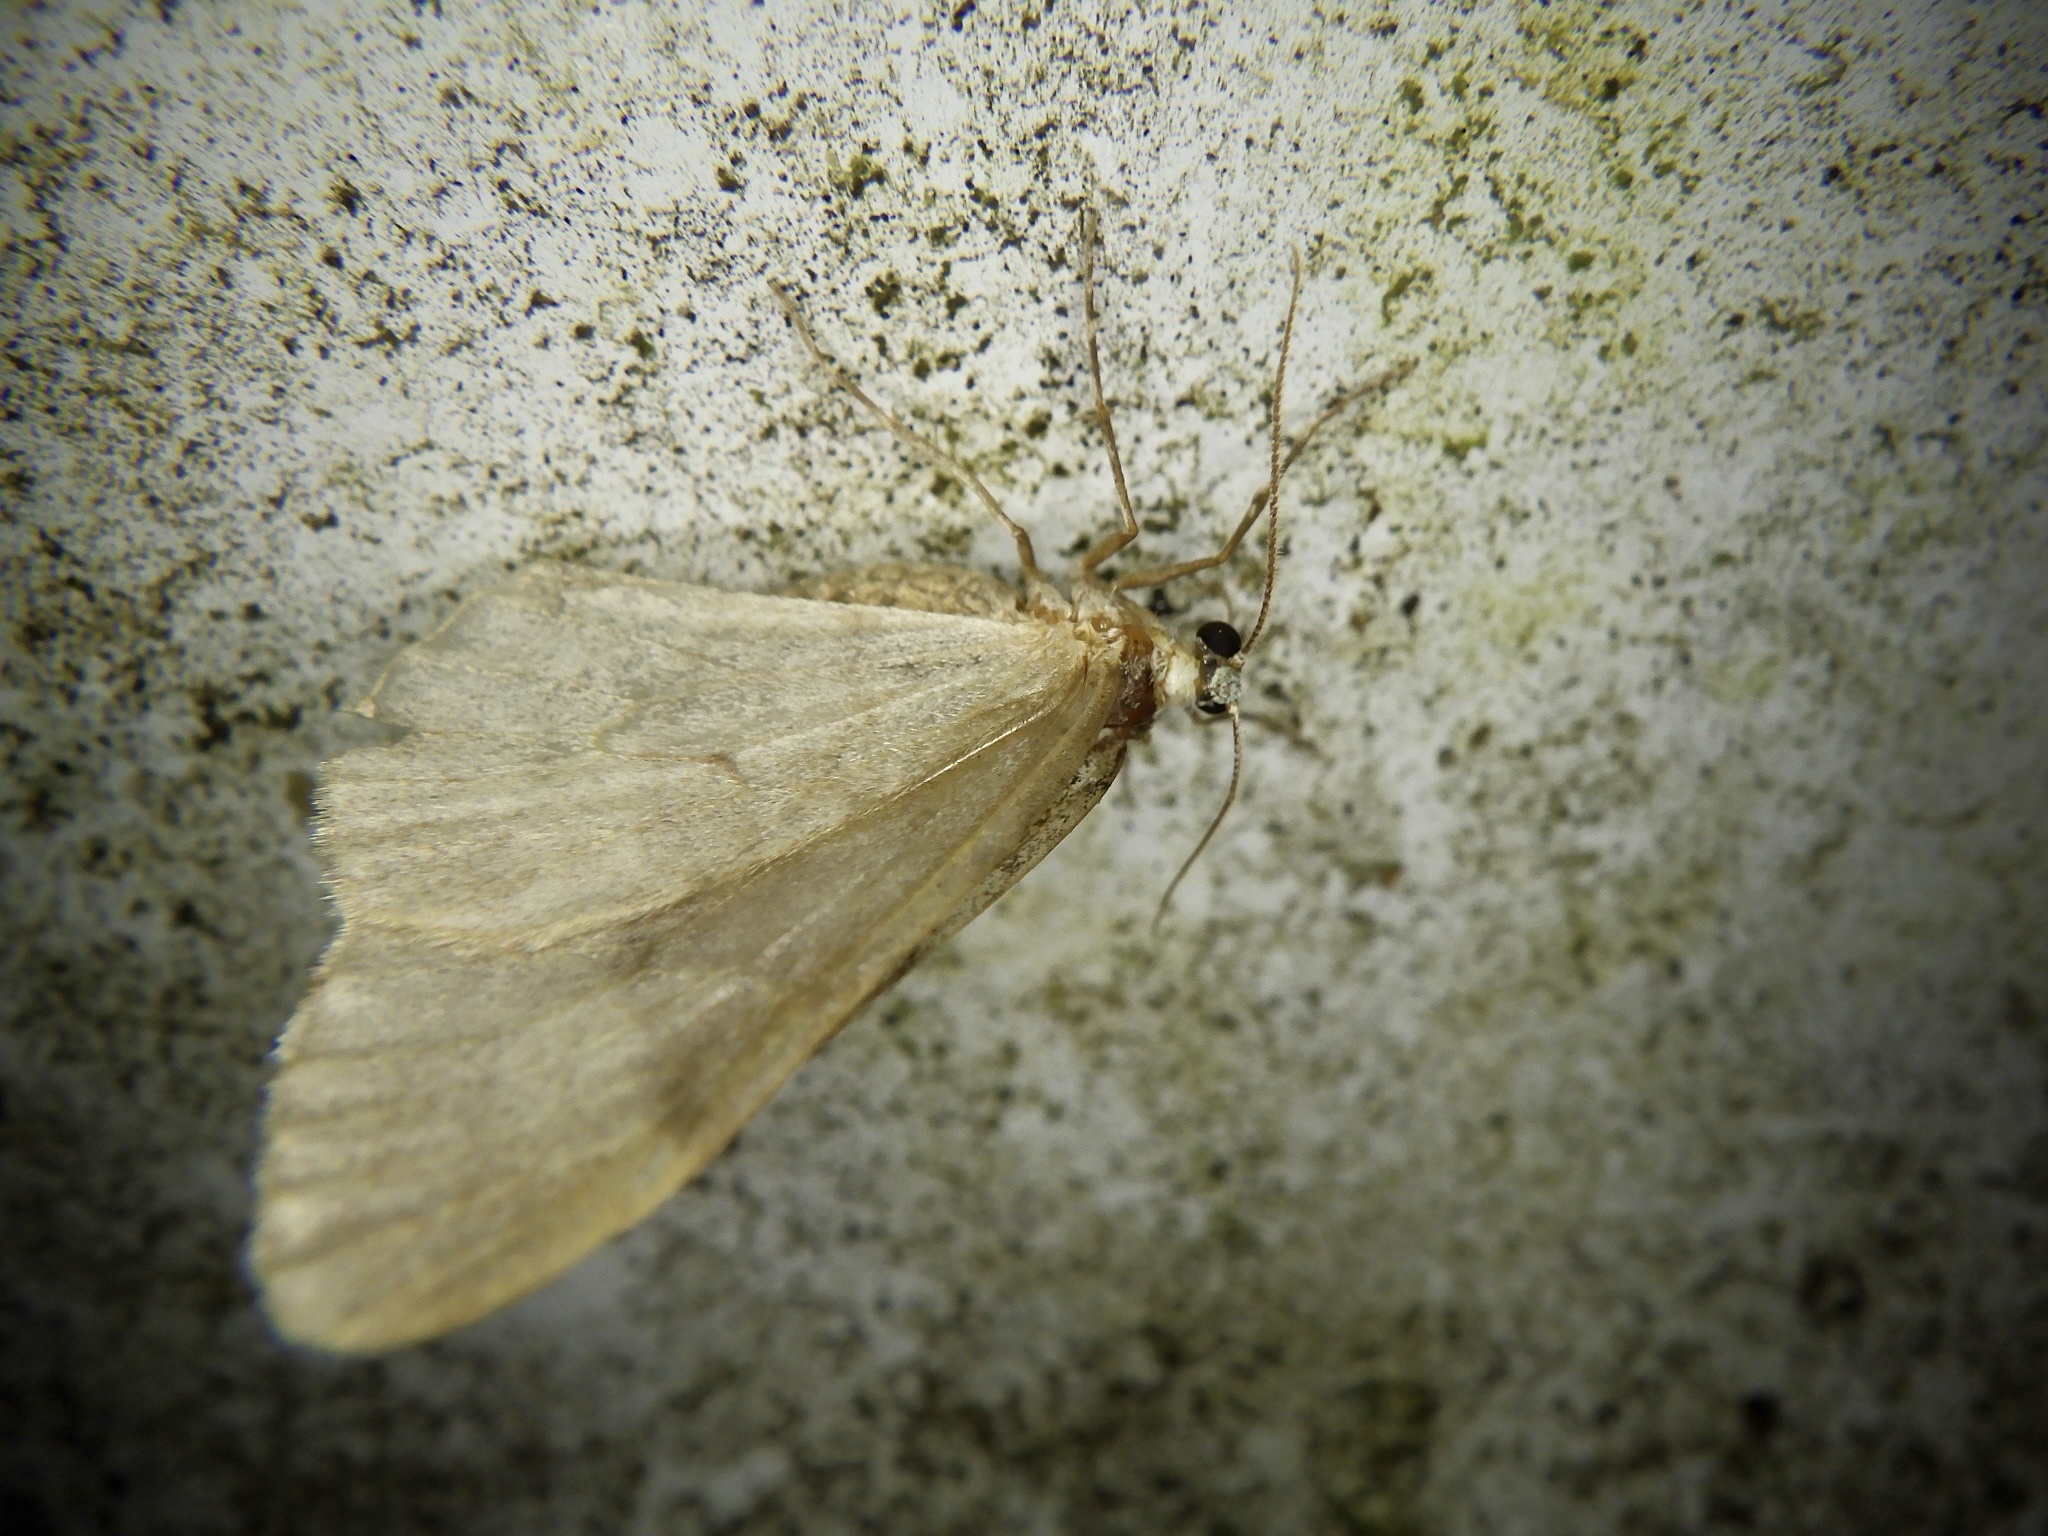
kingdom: Animalia
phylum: Arthropoda
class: Insecta
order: Lepidoptera
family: Geometridae
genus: Epirrita
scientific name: Epirrita viridipurpurescens
